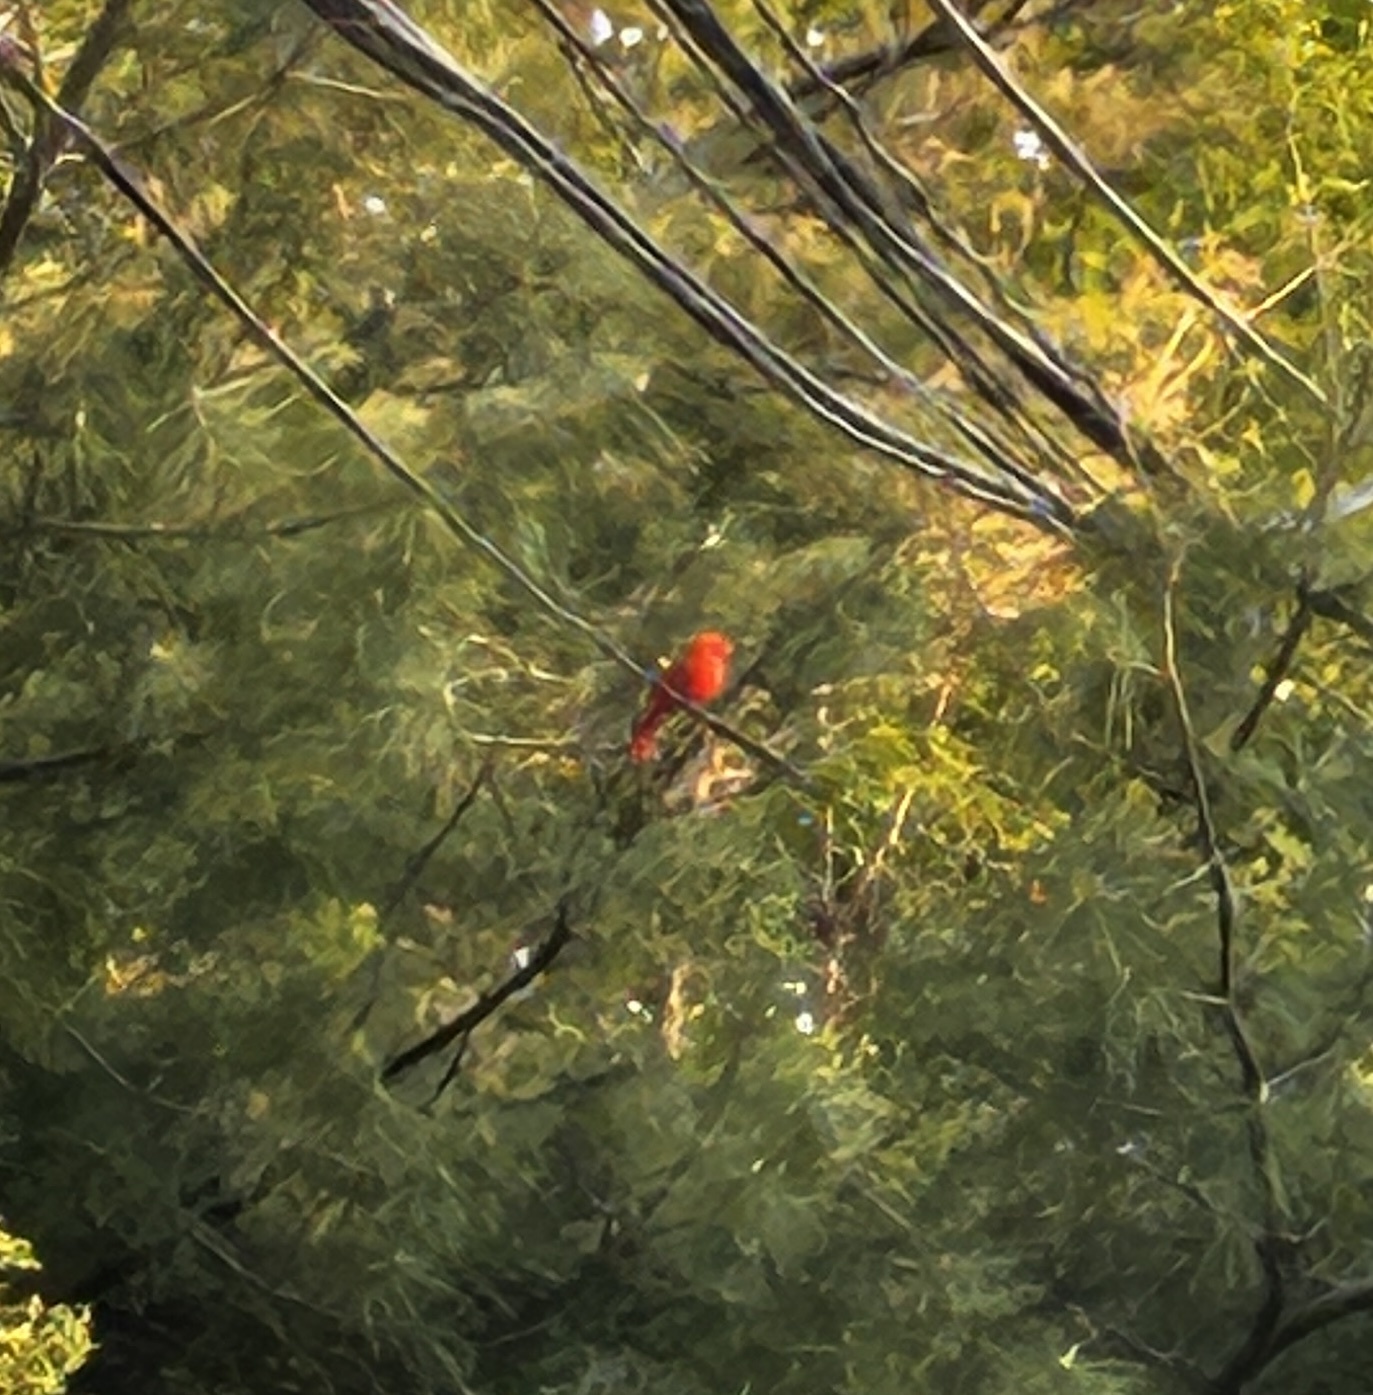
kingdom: Animalia
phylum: Chordata
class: Aves
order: Passeriformes
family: Cardinalidae
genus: Cardinalis
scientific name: Cardinalis cardinalis
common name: Northern cardinal
